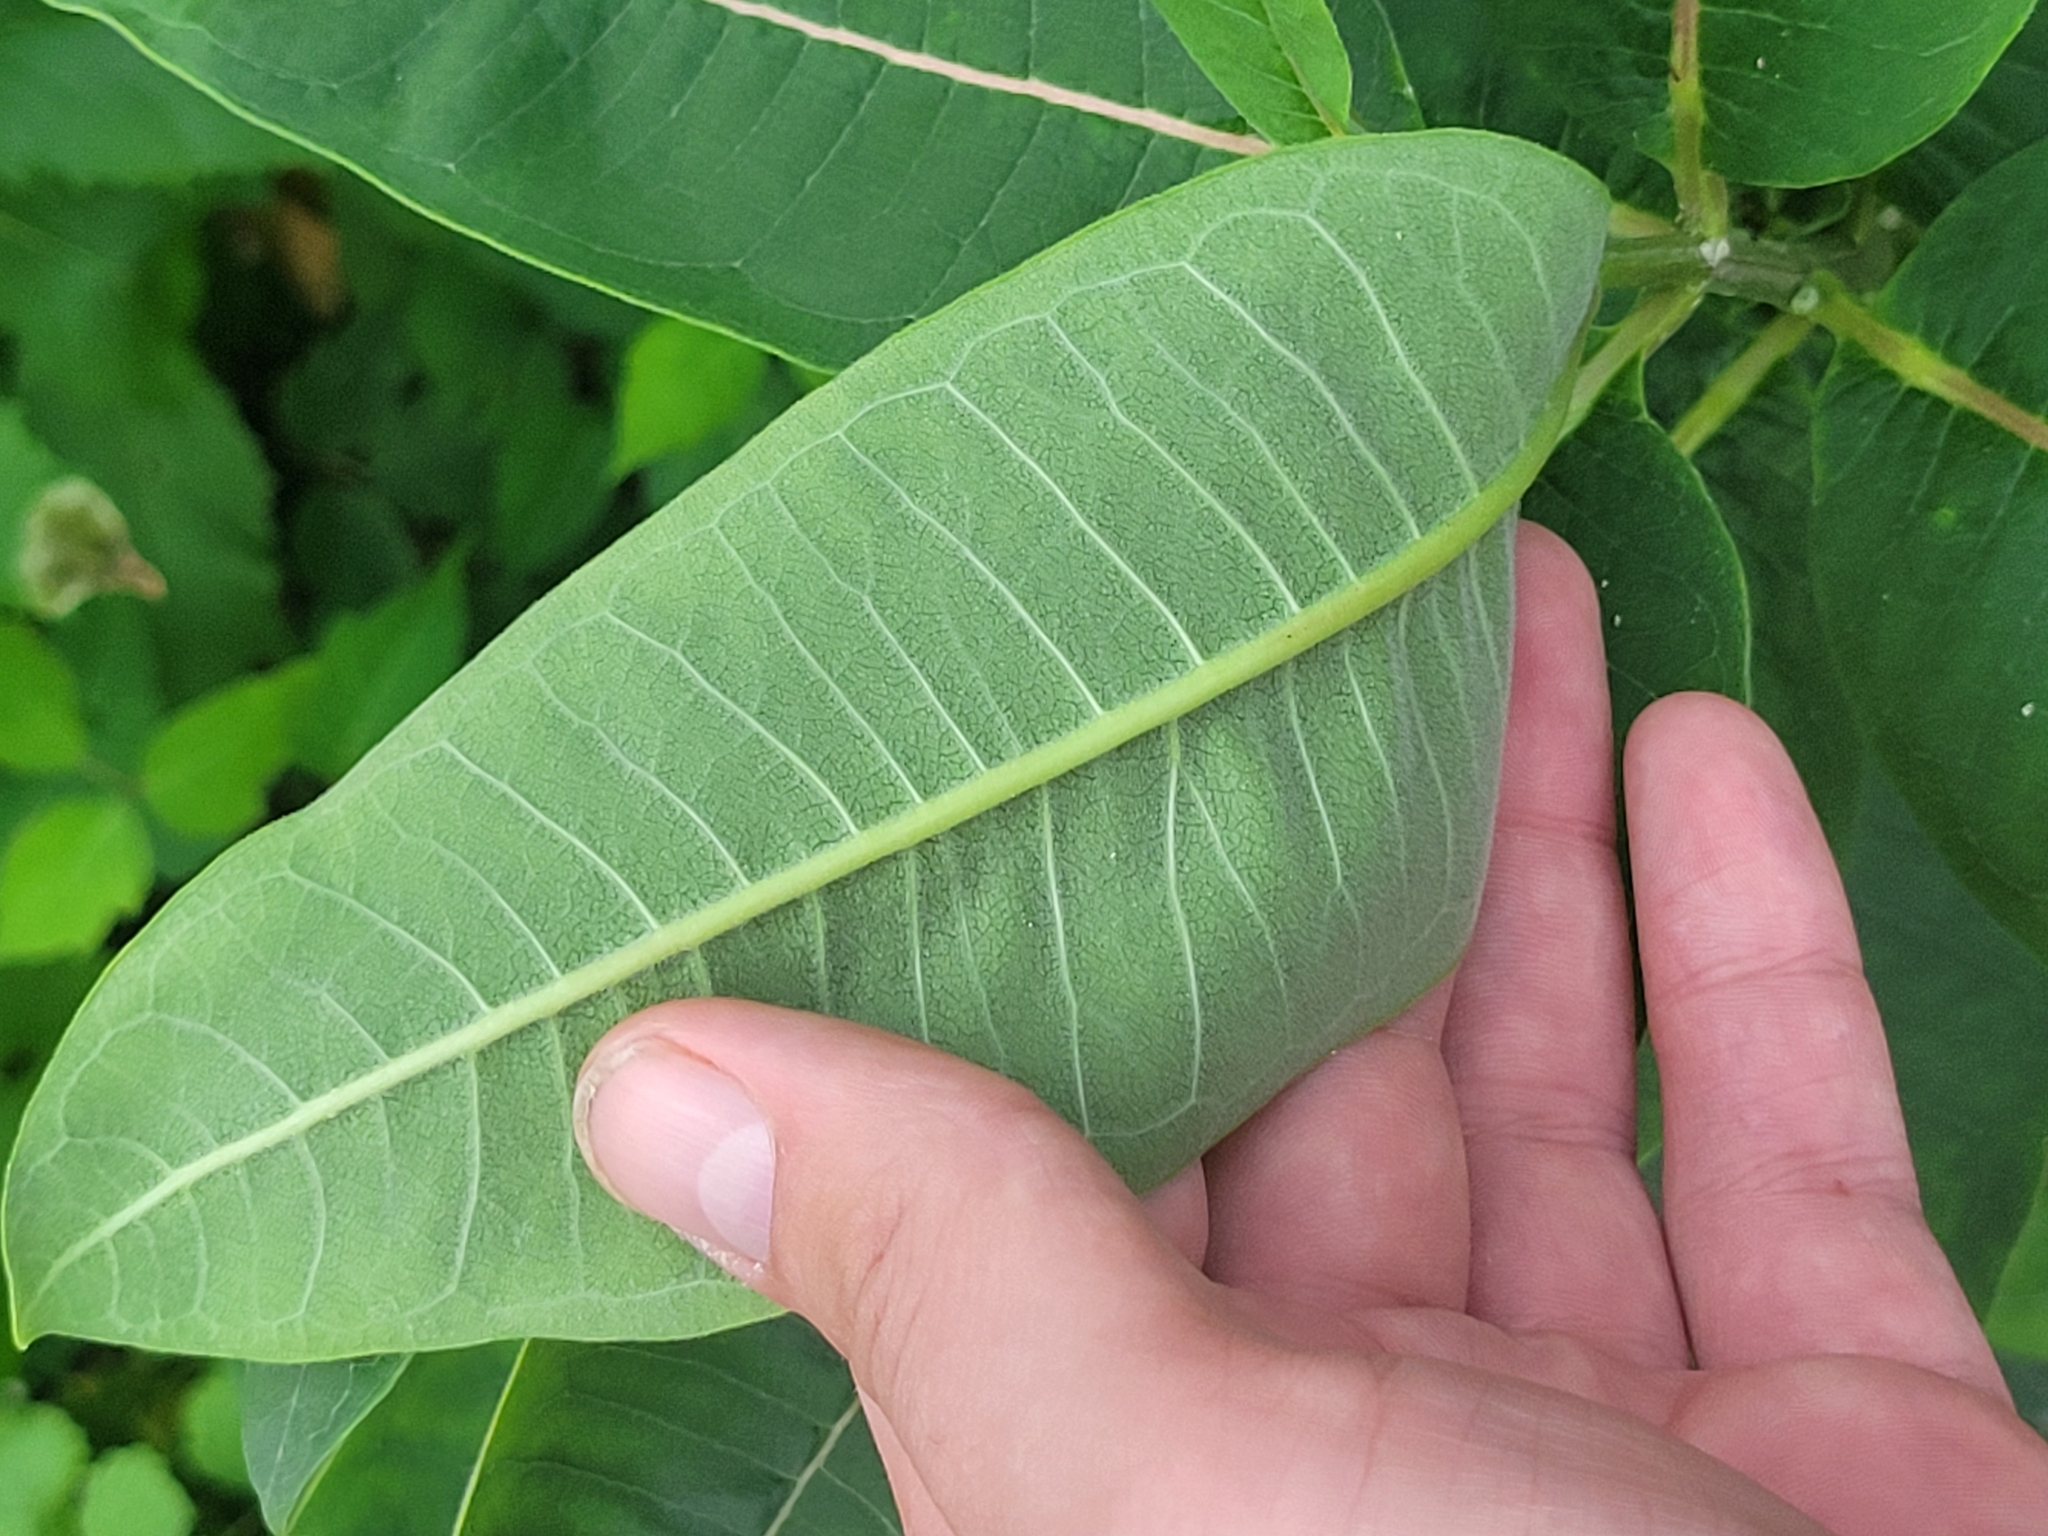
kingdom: Plantae
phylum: Tracheophyta
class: Magnoliopsida
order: Gentianales
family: Apocynaceae
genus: Asclepias
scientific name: Asclepias syriaca
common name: Common milkweed
